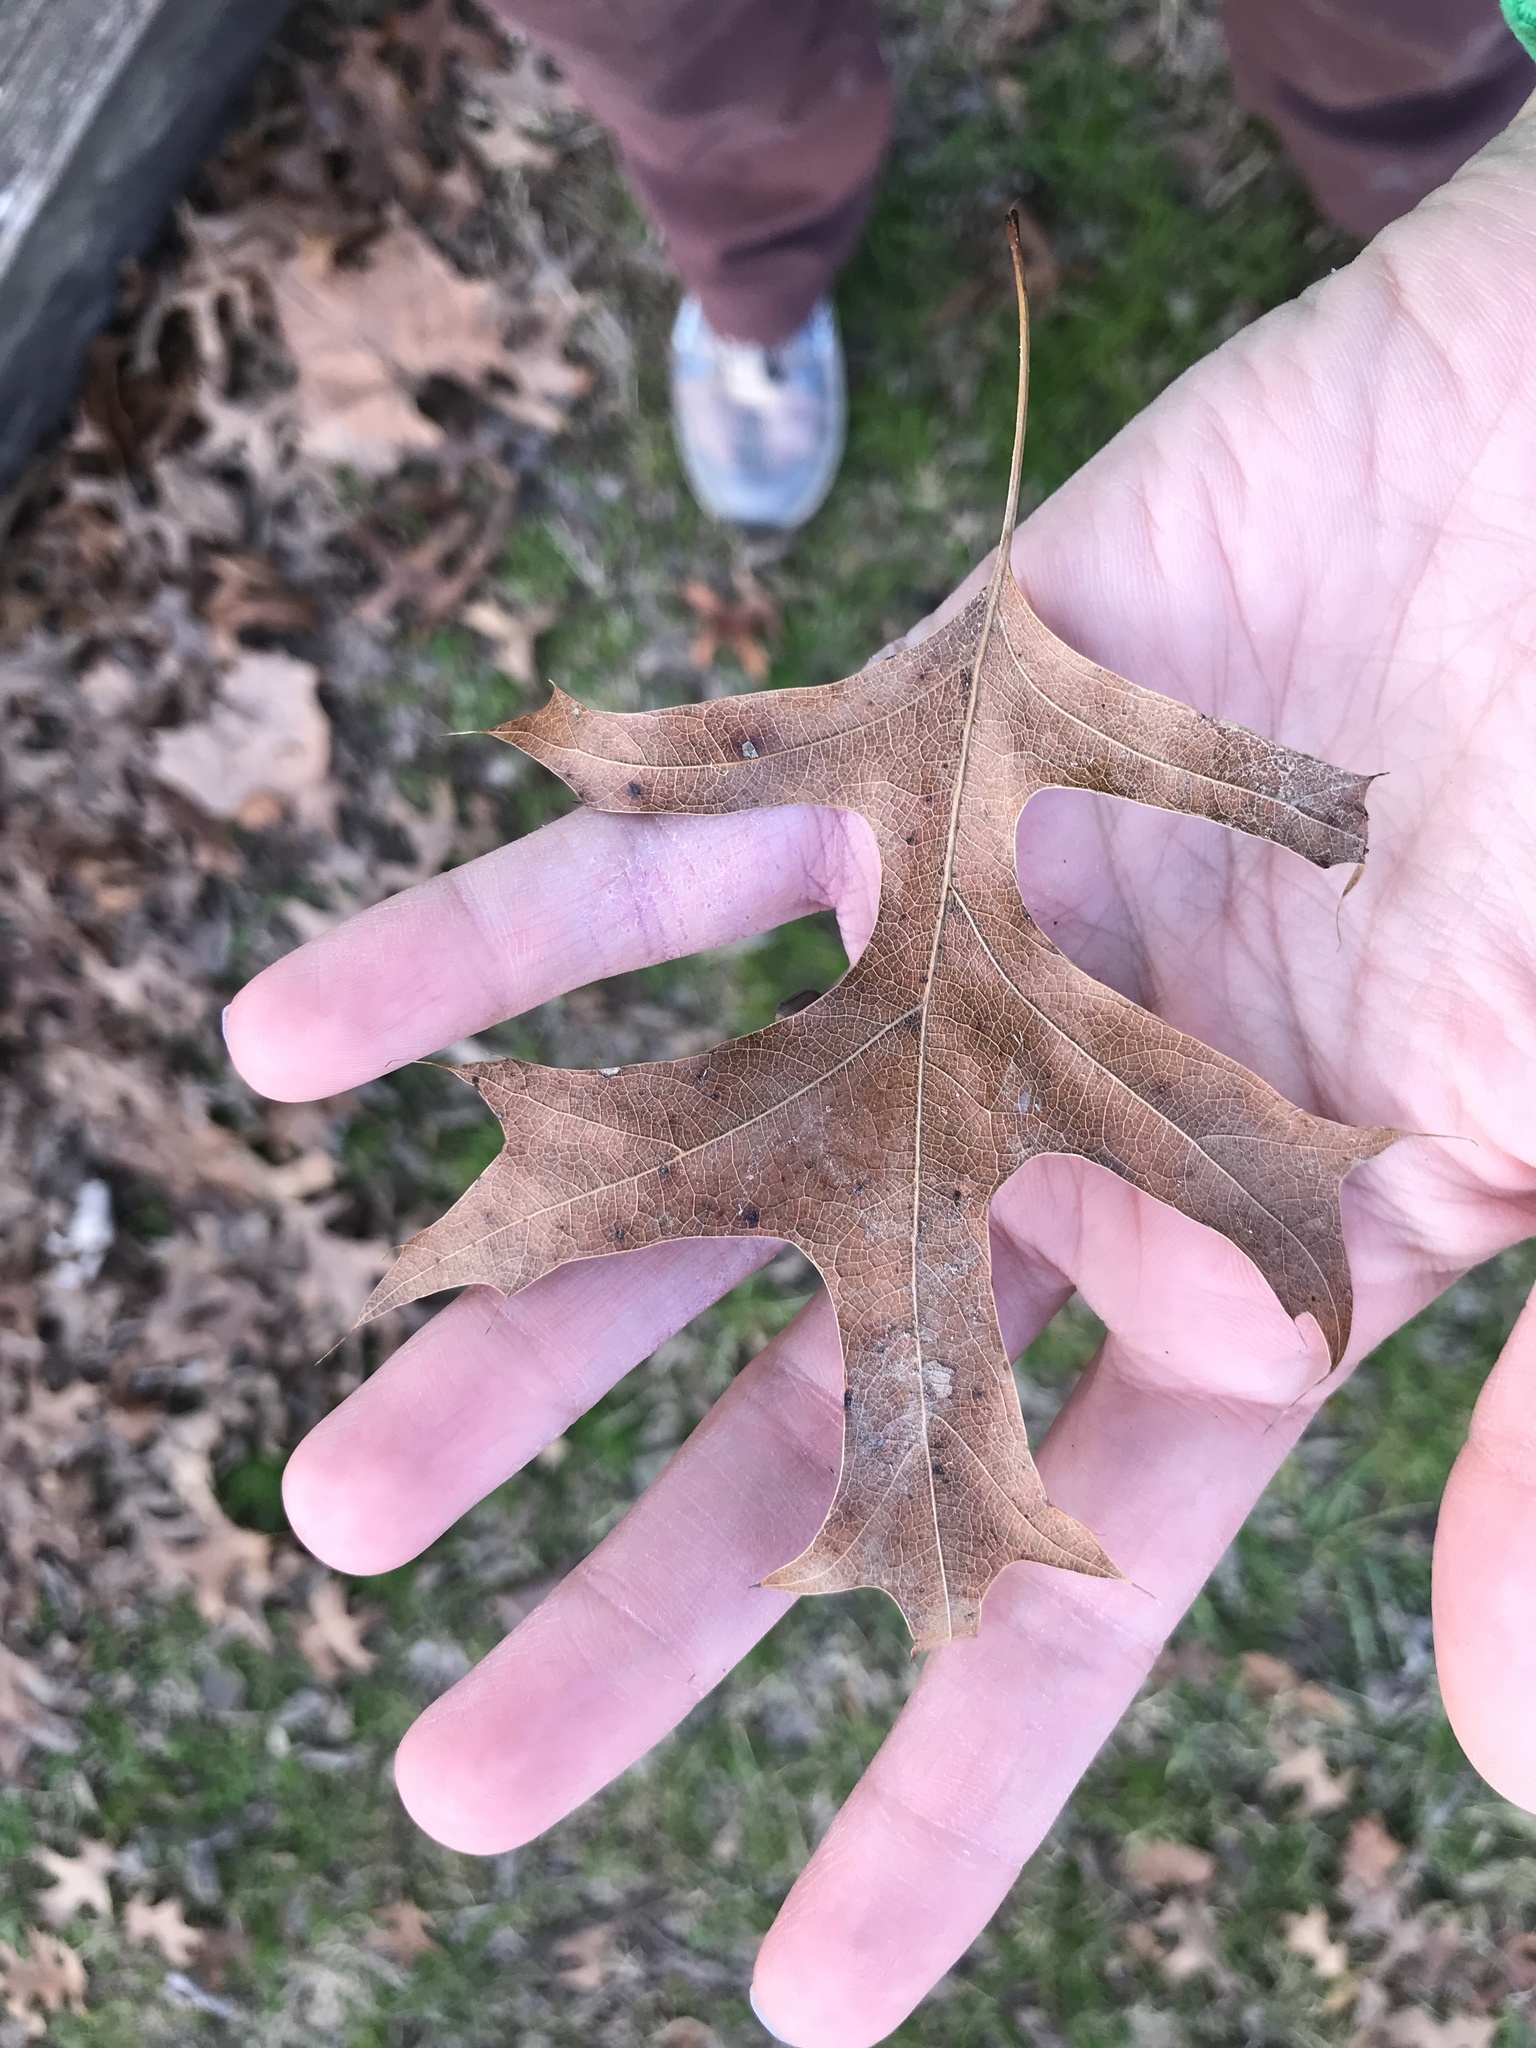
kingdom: Plantae
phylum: Tracheophyta
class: Magnoliopsida
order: Fagales
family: Fagaceae
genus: Quercus
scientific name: Quercus coccinea
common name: Scarlet oak
